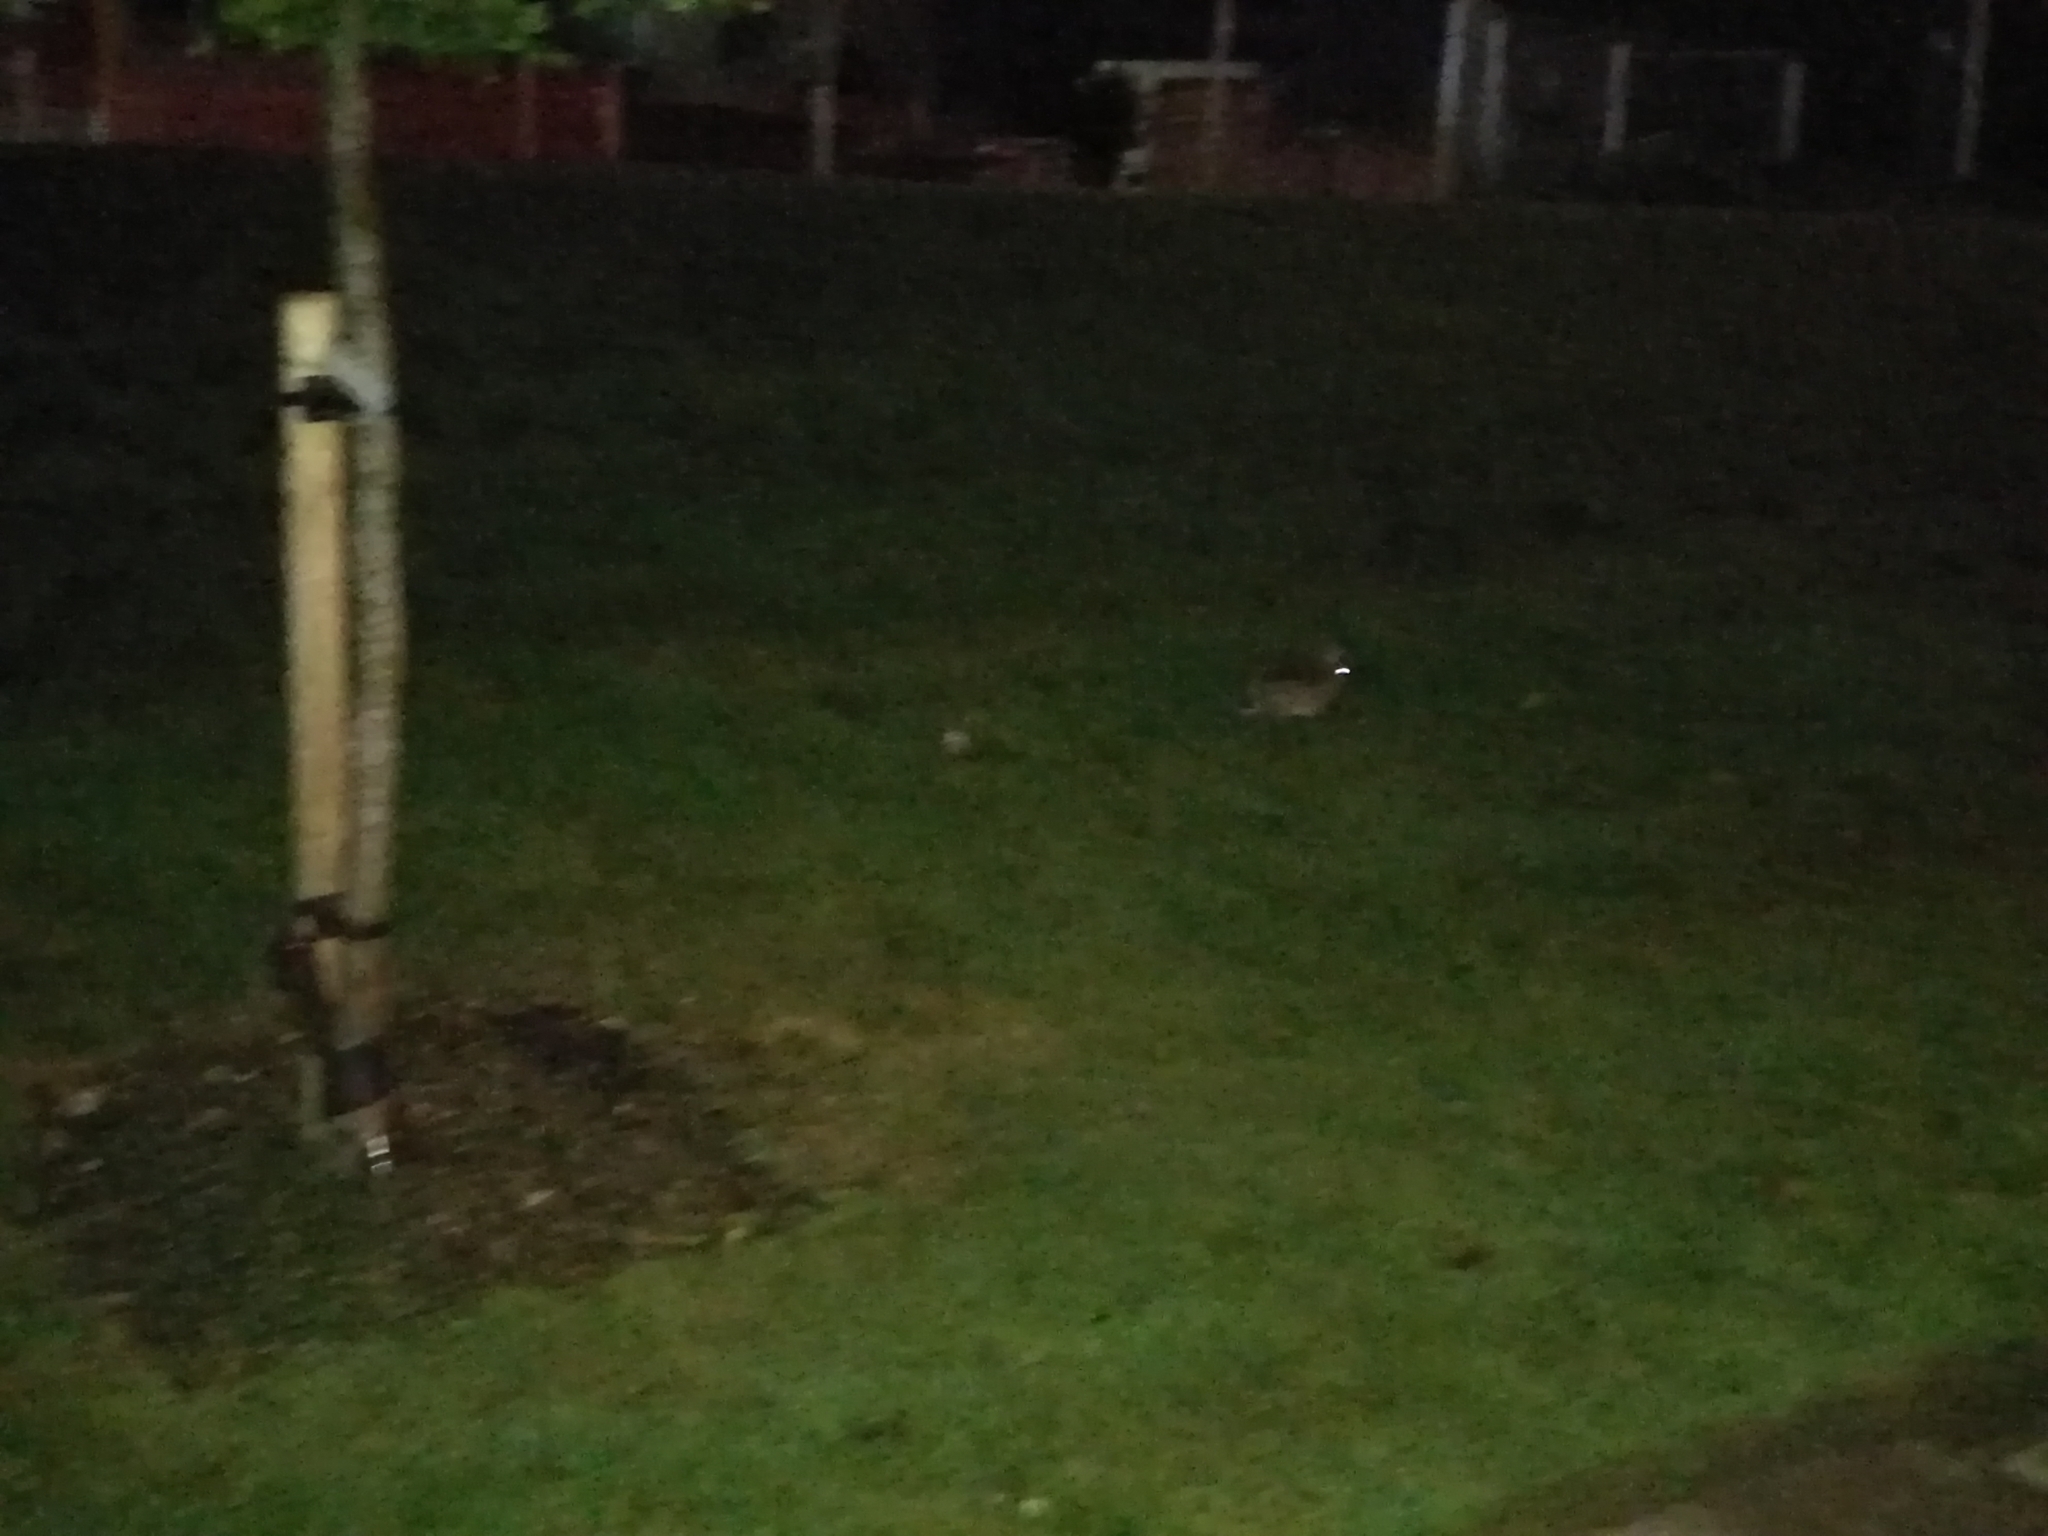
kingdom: Animalia
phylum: Chordata
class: Mammalia
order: Lagomorpha
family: Leporidae
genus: Oryctolagus
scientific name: Oryctolagus cuniculus
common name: European rabbit
